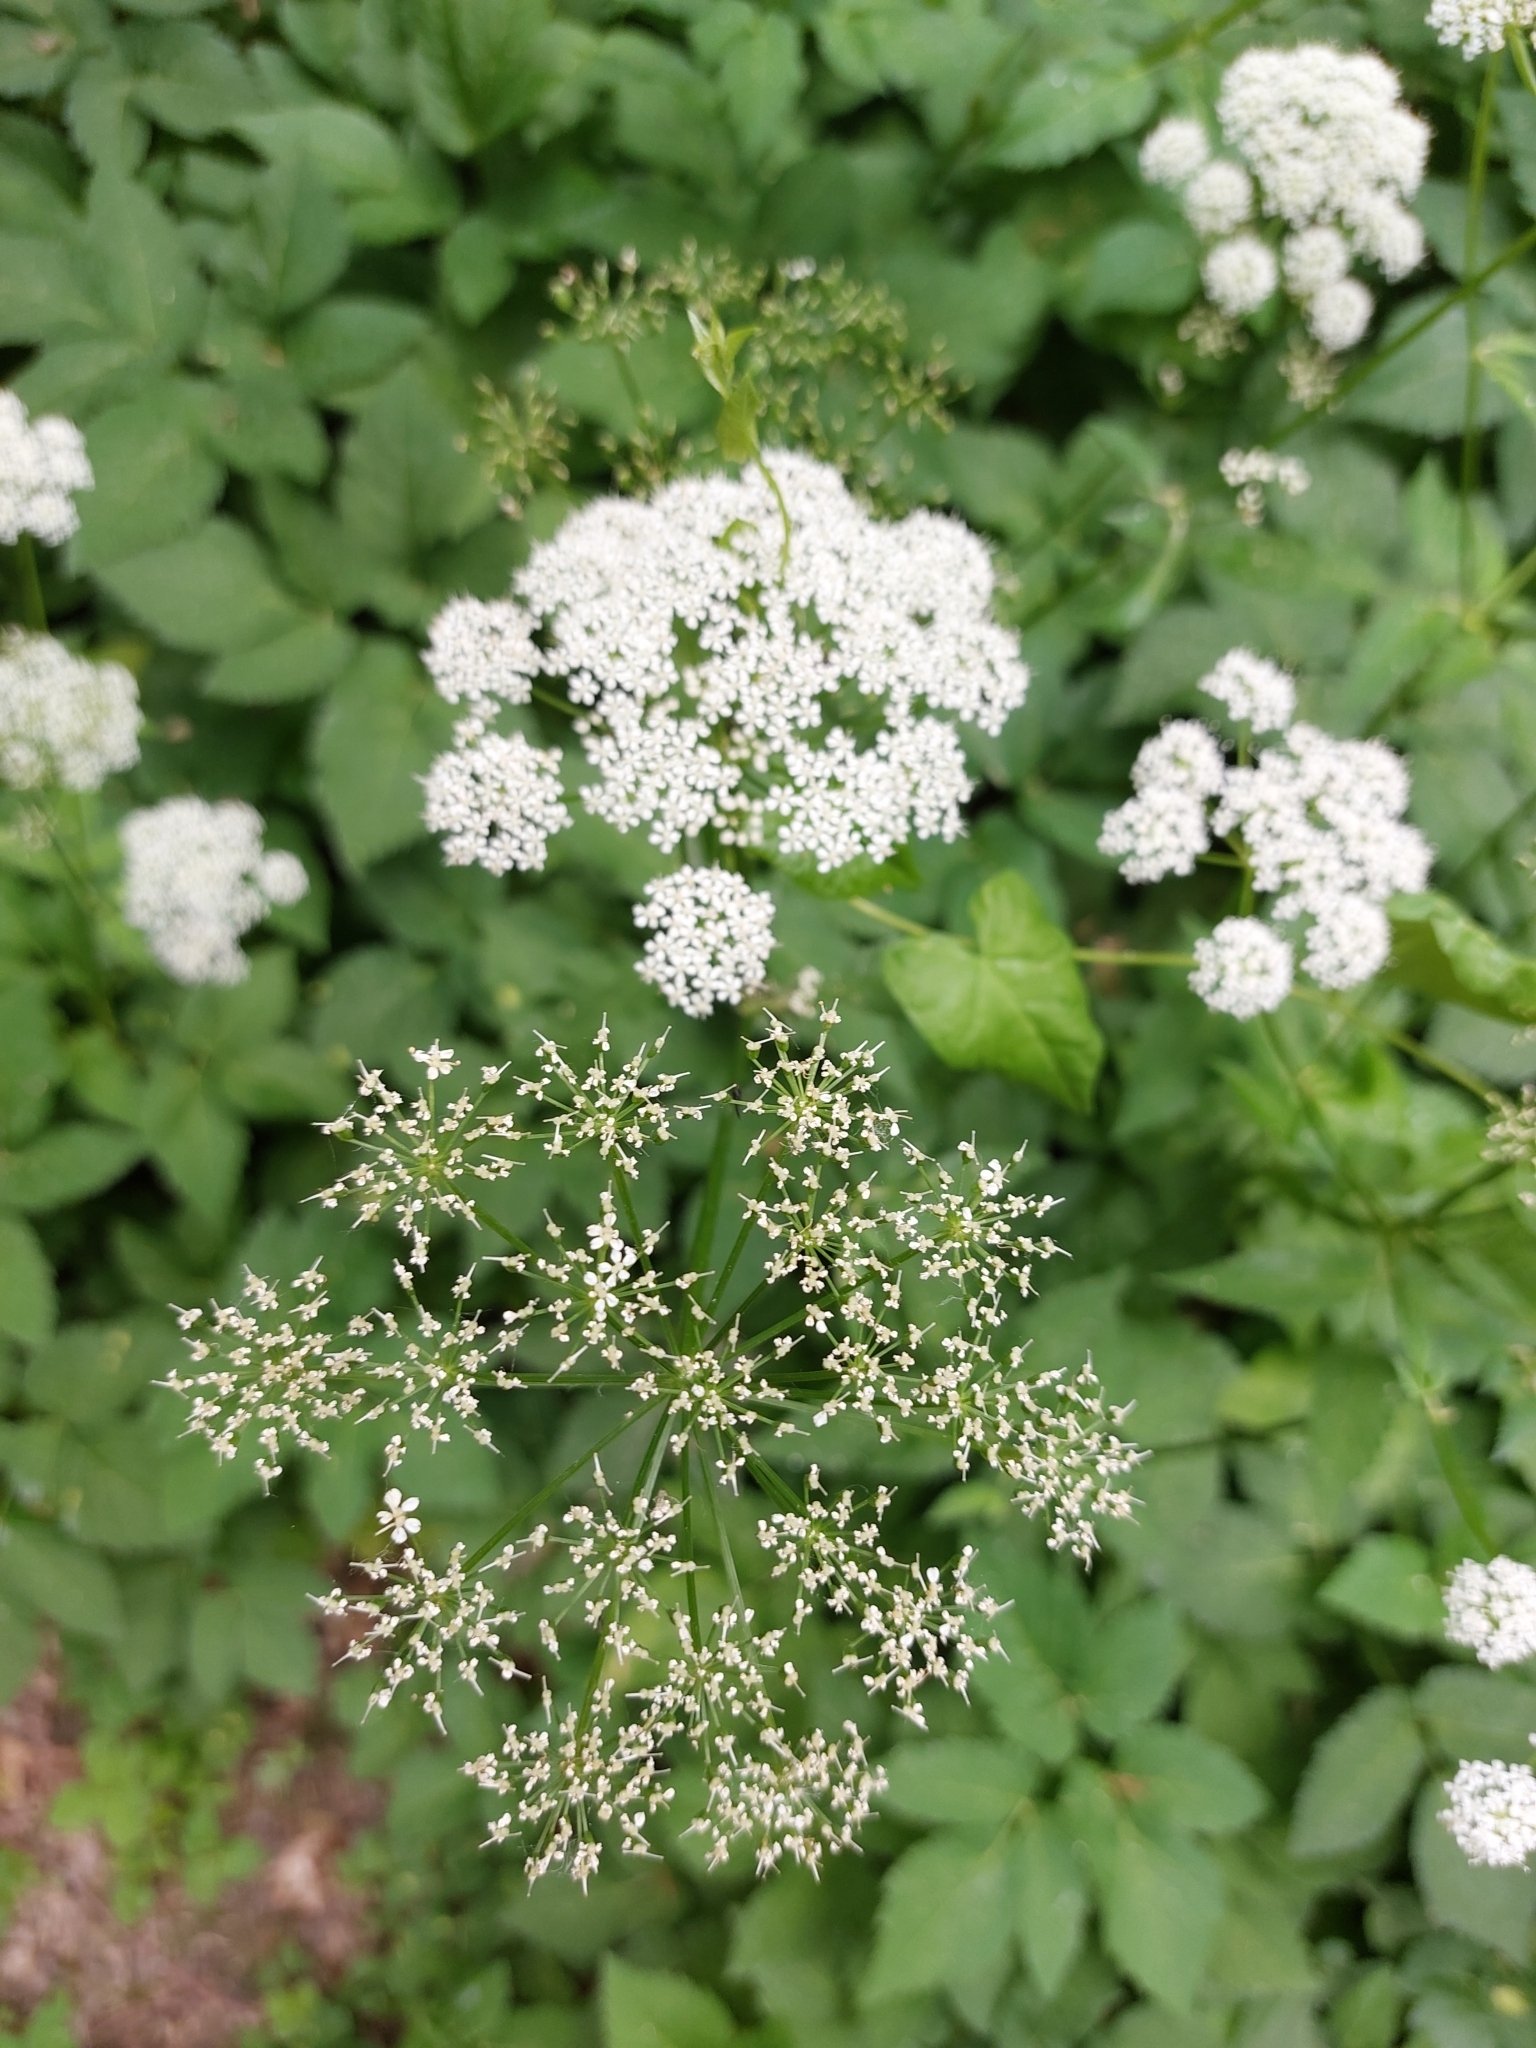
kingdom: Plantae
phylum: Tracheophyta
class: Magnoliopsida
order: Apiales
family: Apiaceae
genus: Aegopodium
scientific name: Aegopodium podagraria
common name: Ground-elder
